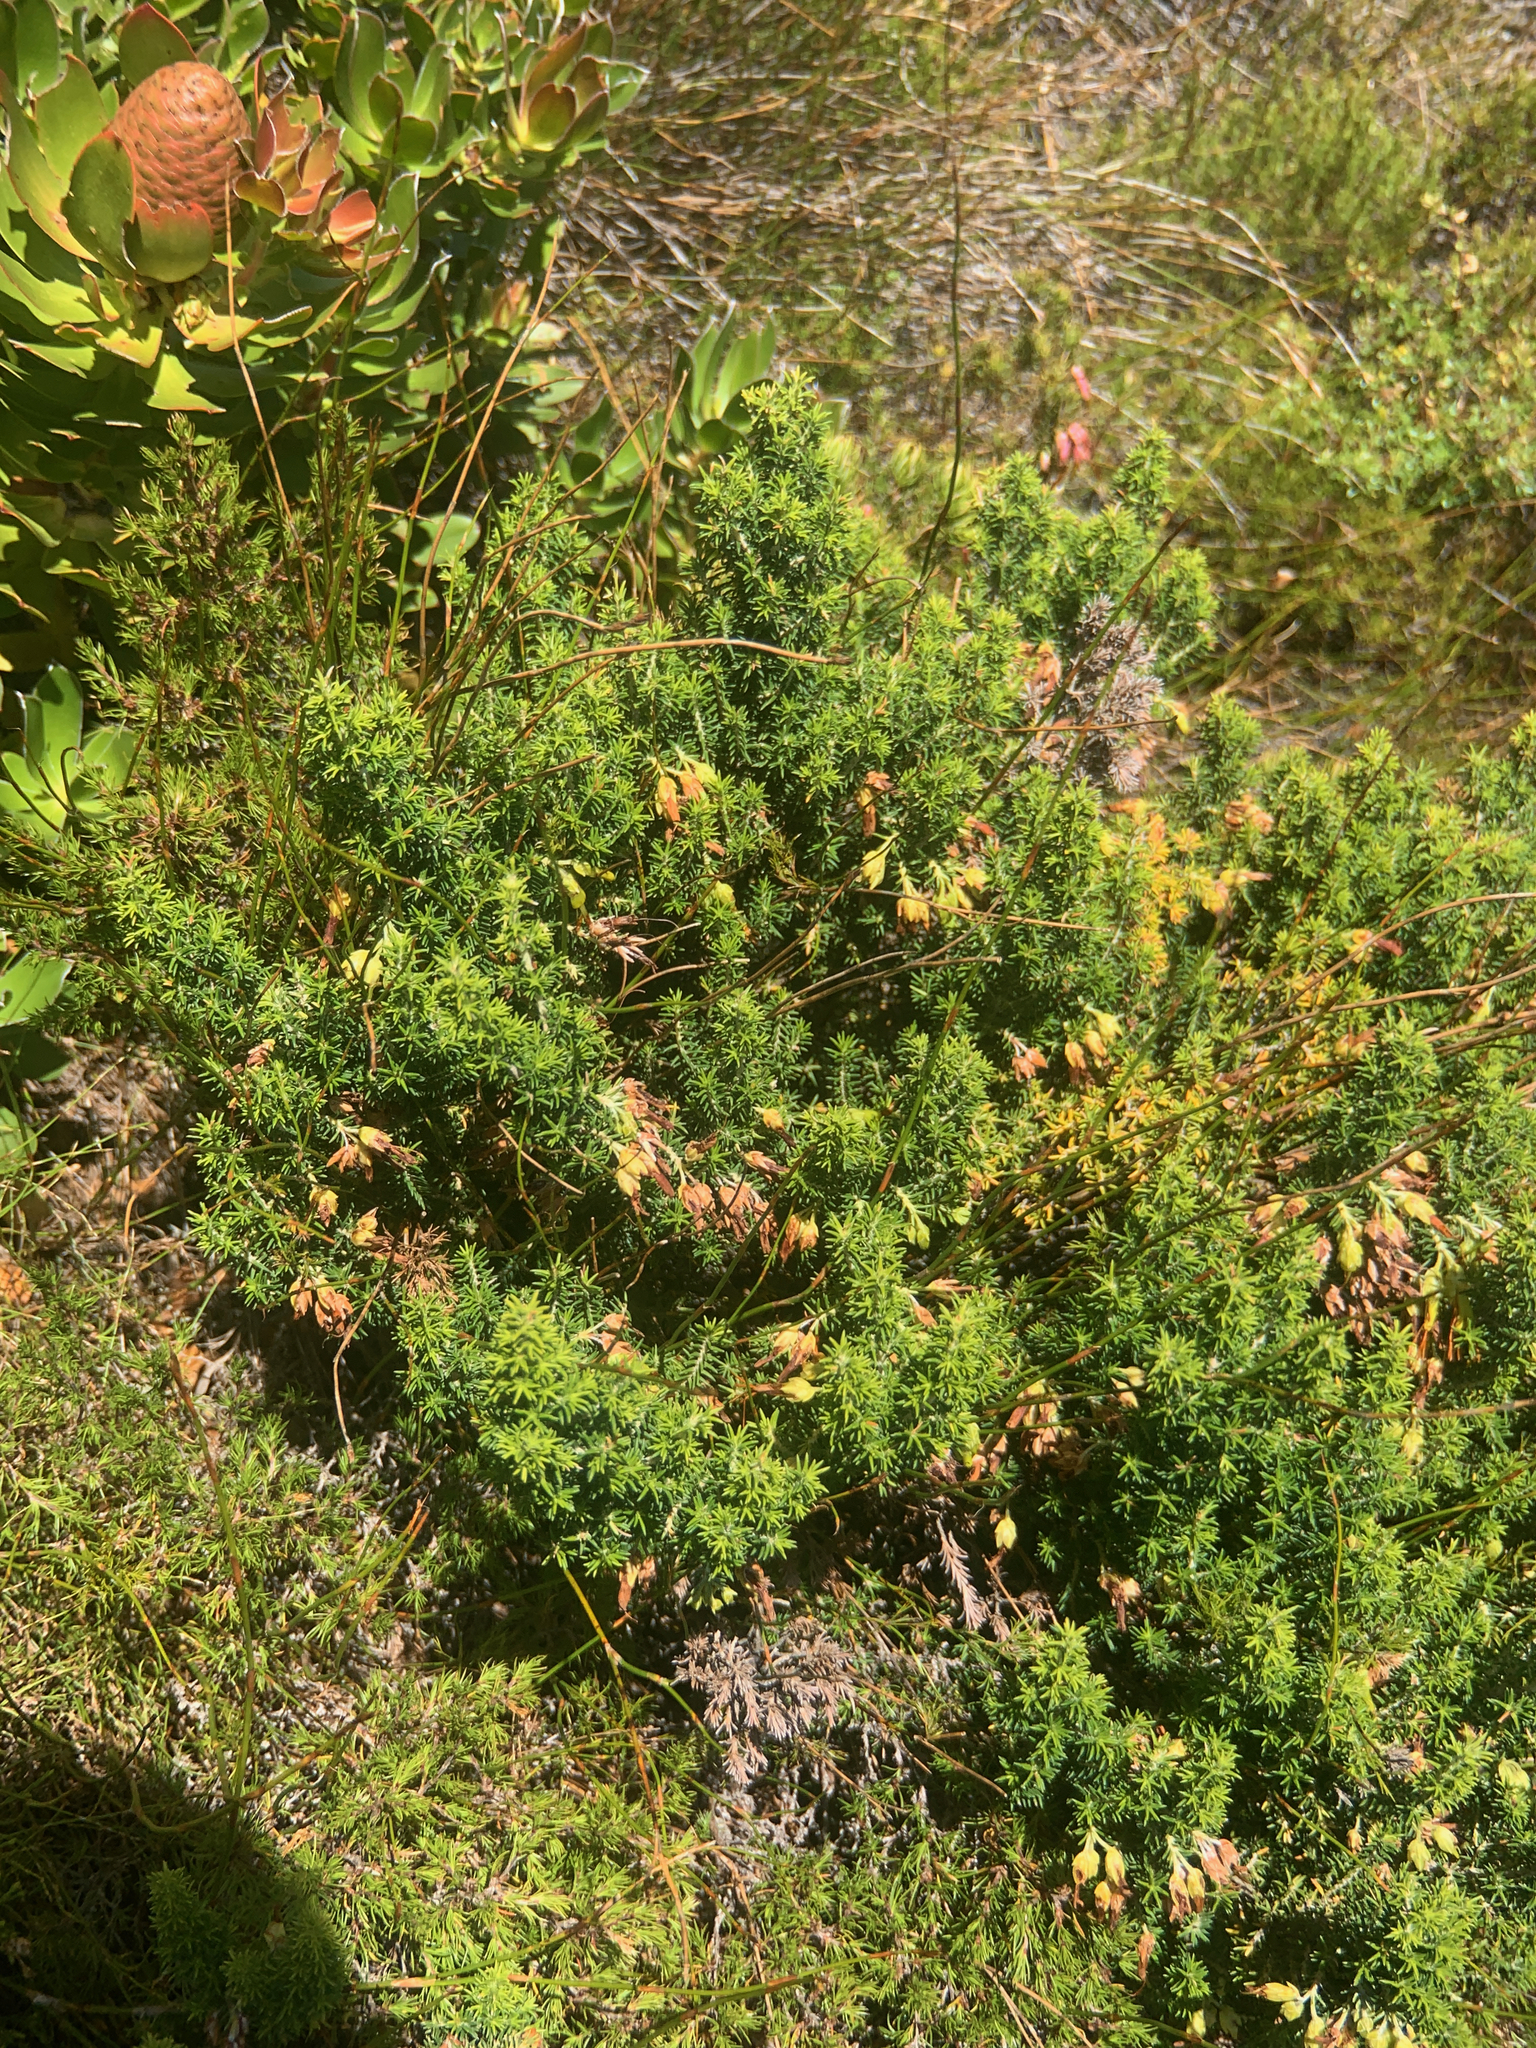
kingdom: Plantae
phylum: Tracheophyta
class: Magnoliopsida
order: Ericales
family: Ericaceae
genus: Erica
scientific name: Erica coccinea
